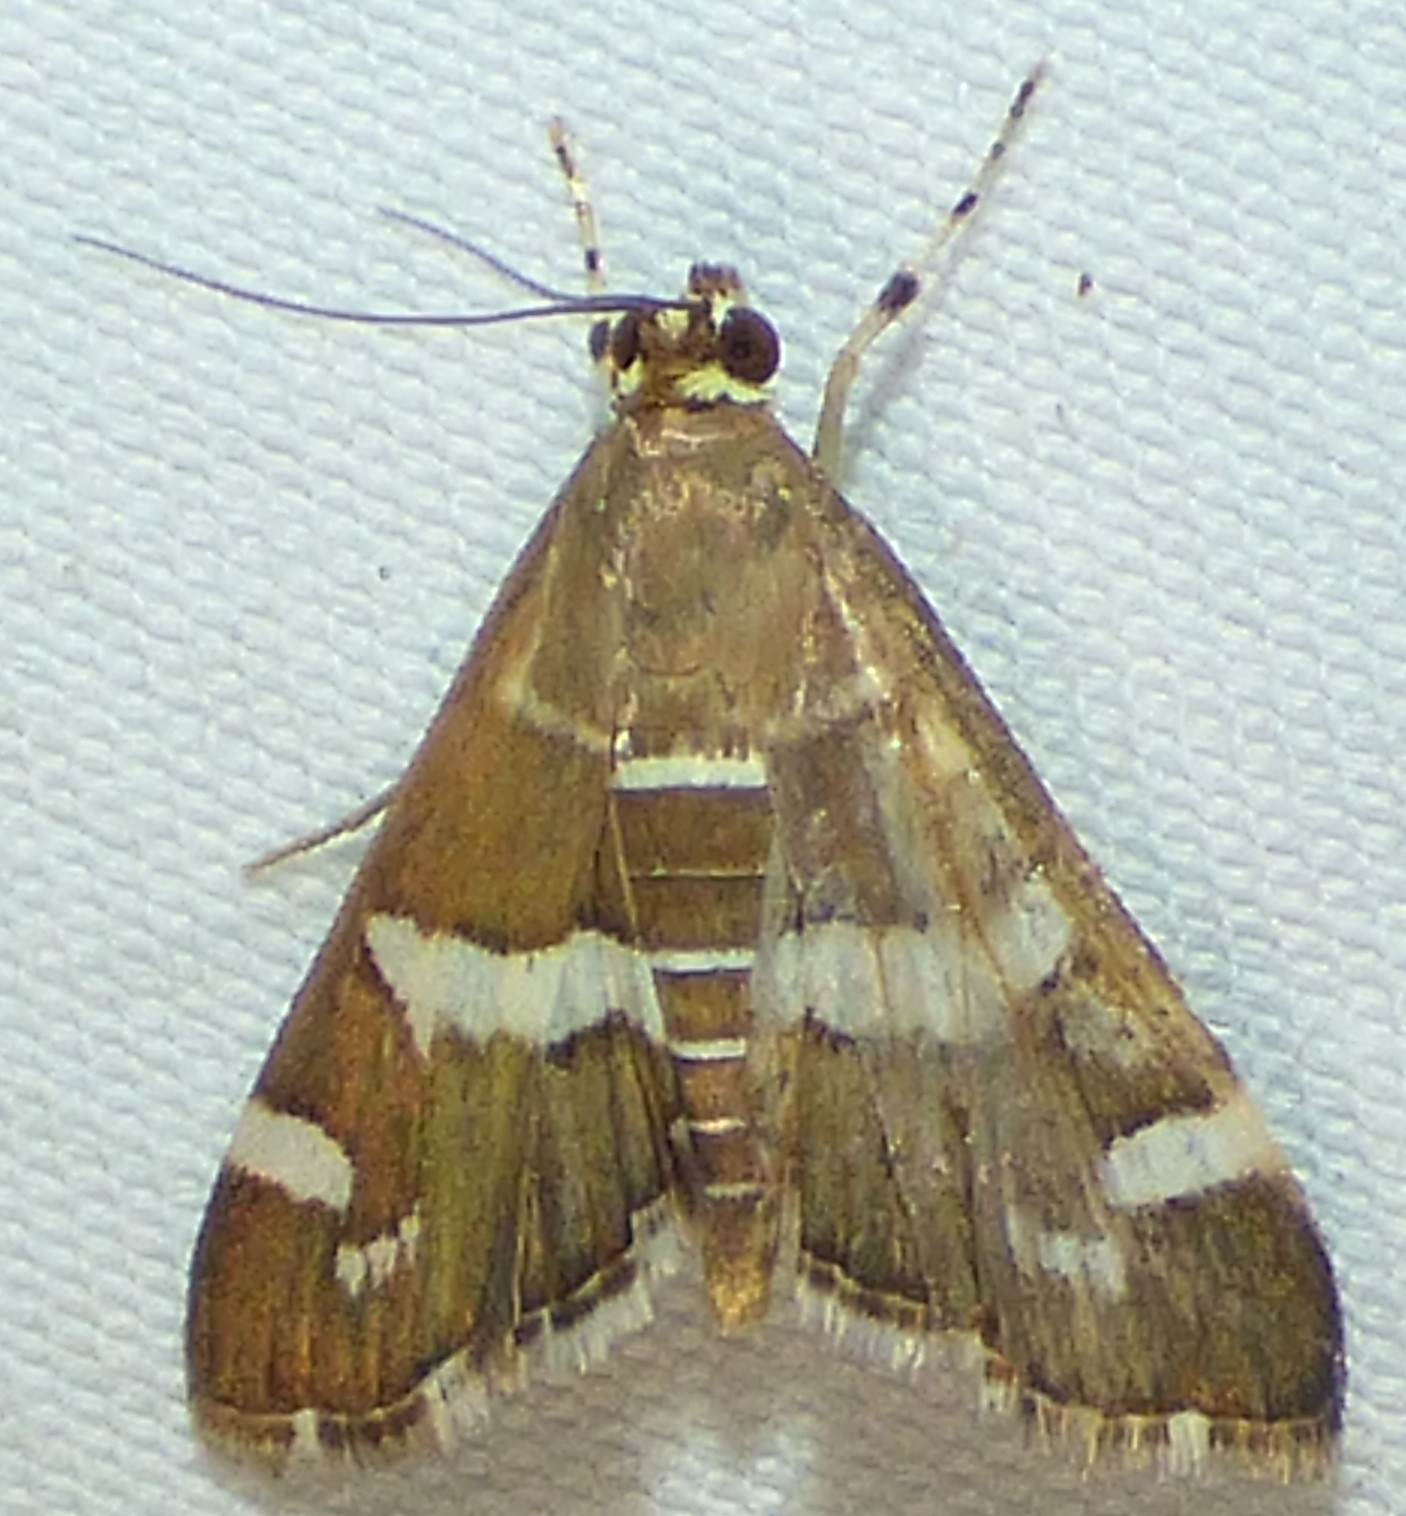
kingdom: Animalia
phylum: Arthropoda
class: Insecta
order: Lepidoptera
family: Crambidae
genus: Spoladea
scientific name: Spoladea recurvalis
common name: Beet webworm moth
